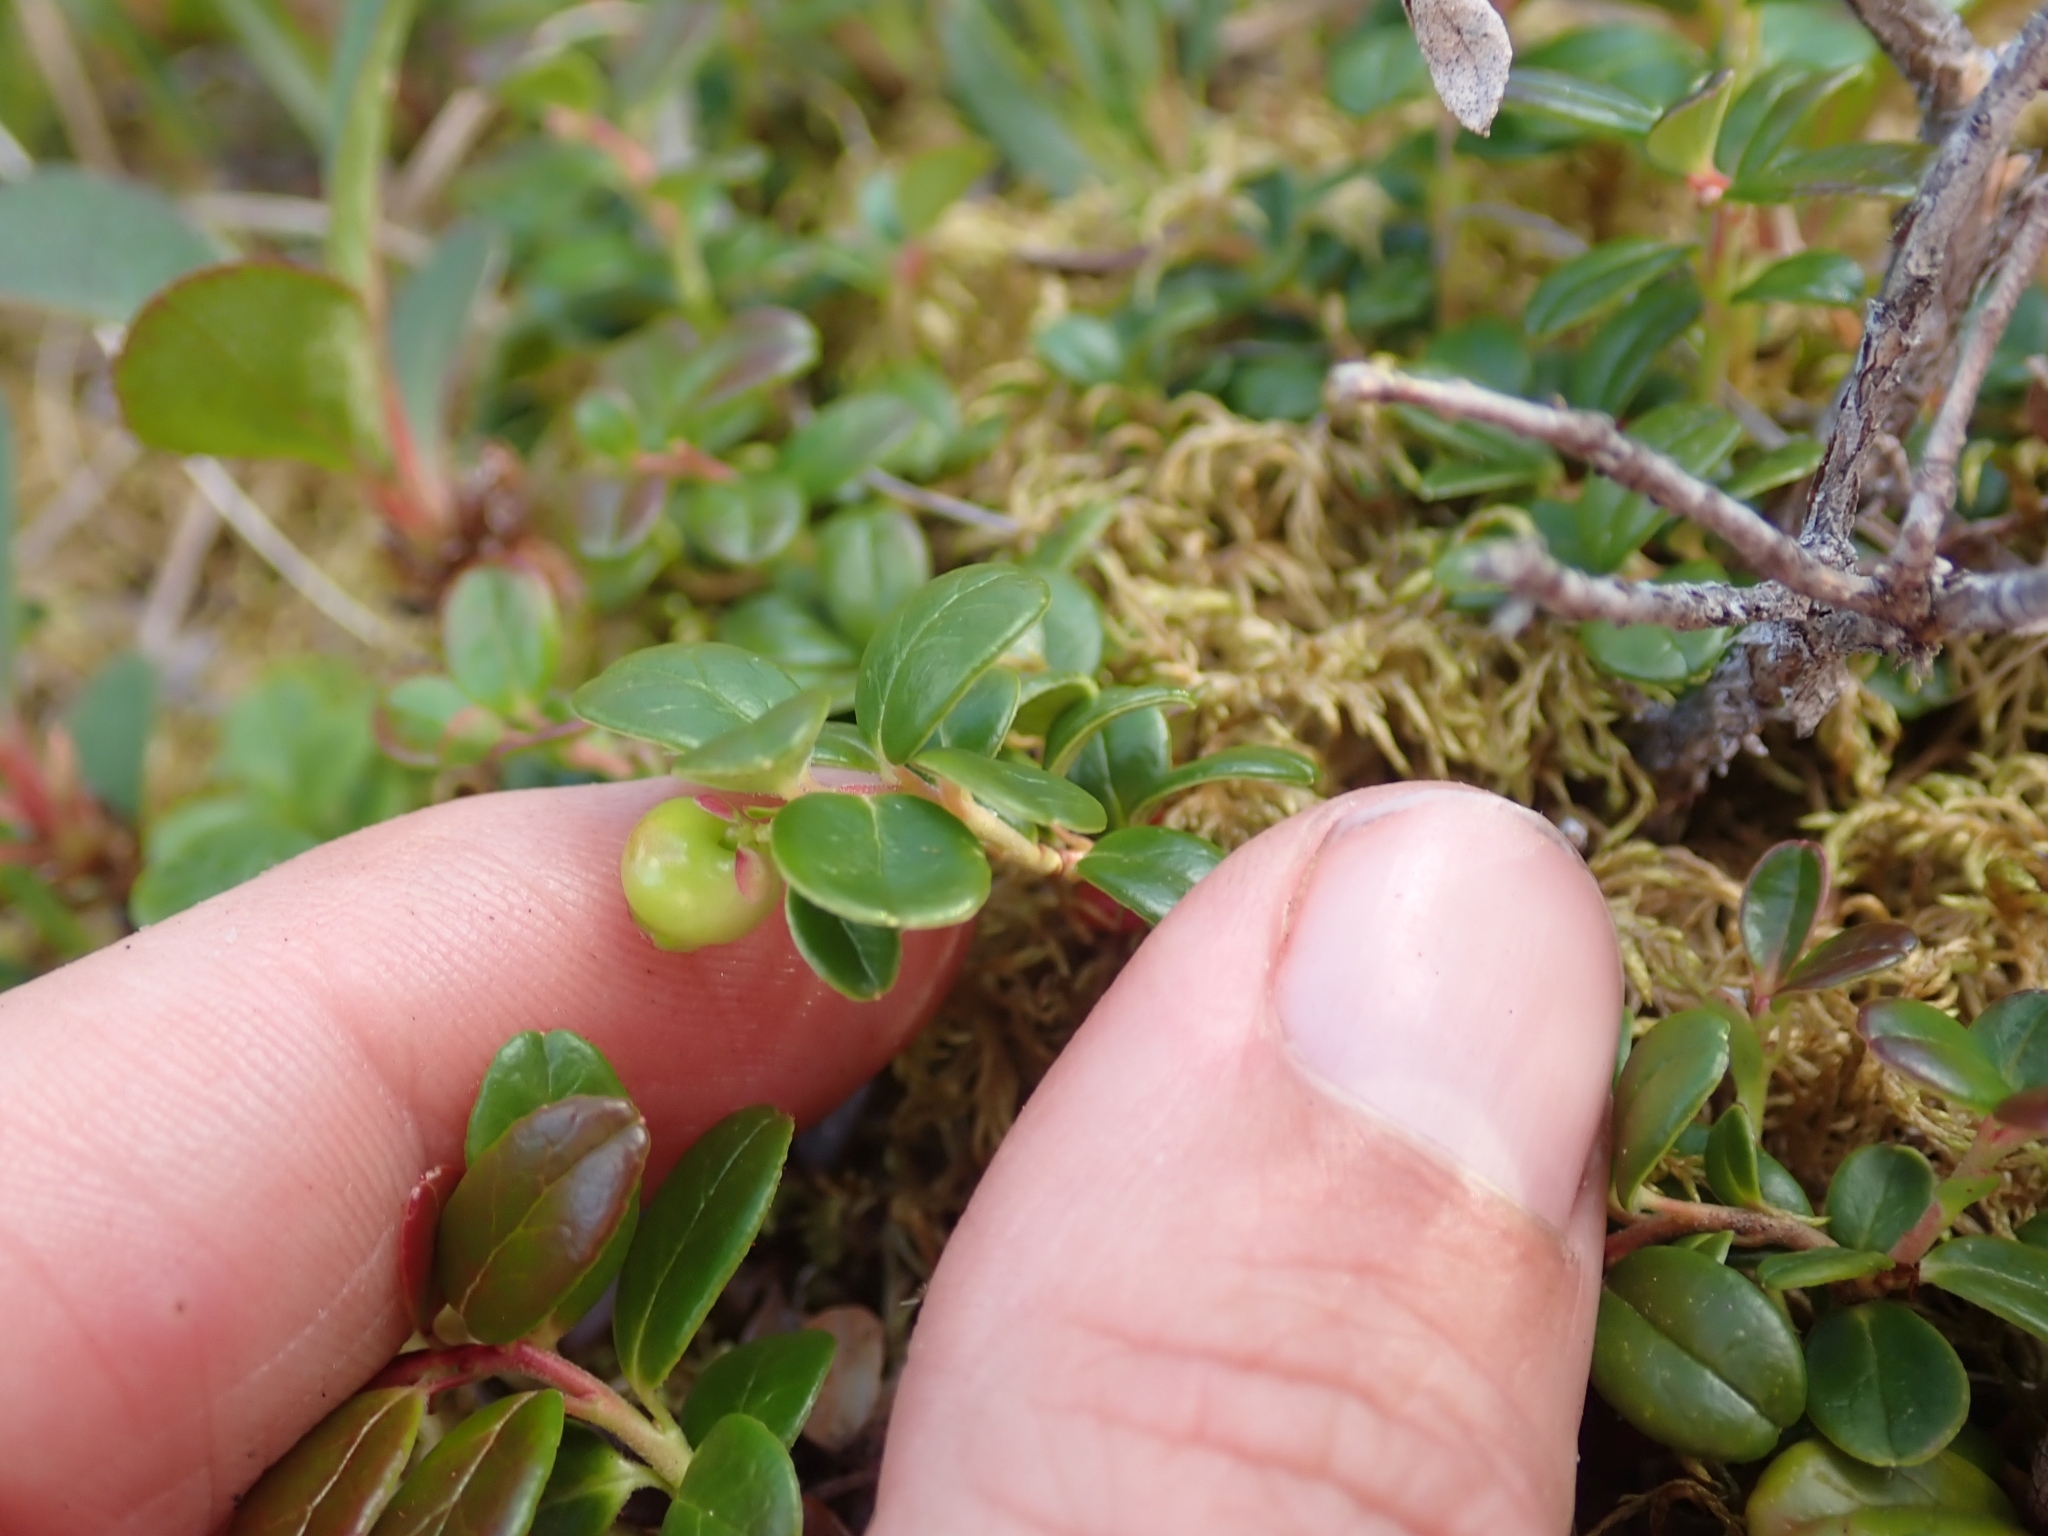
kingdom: Plantae
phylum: Tracheophyta
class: Magnoliopsida
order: Ericales
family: Ericaceae
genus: Vaccinium
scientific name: Vaccinium vitis-idaea
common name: Cowberry
